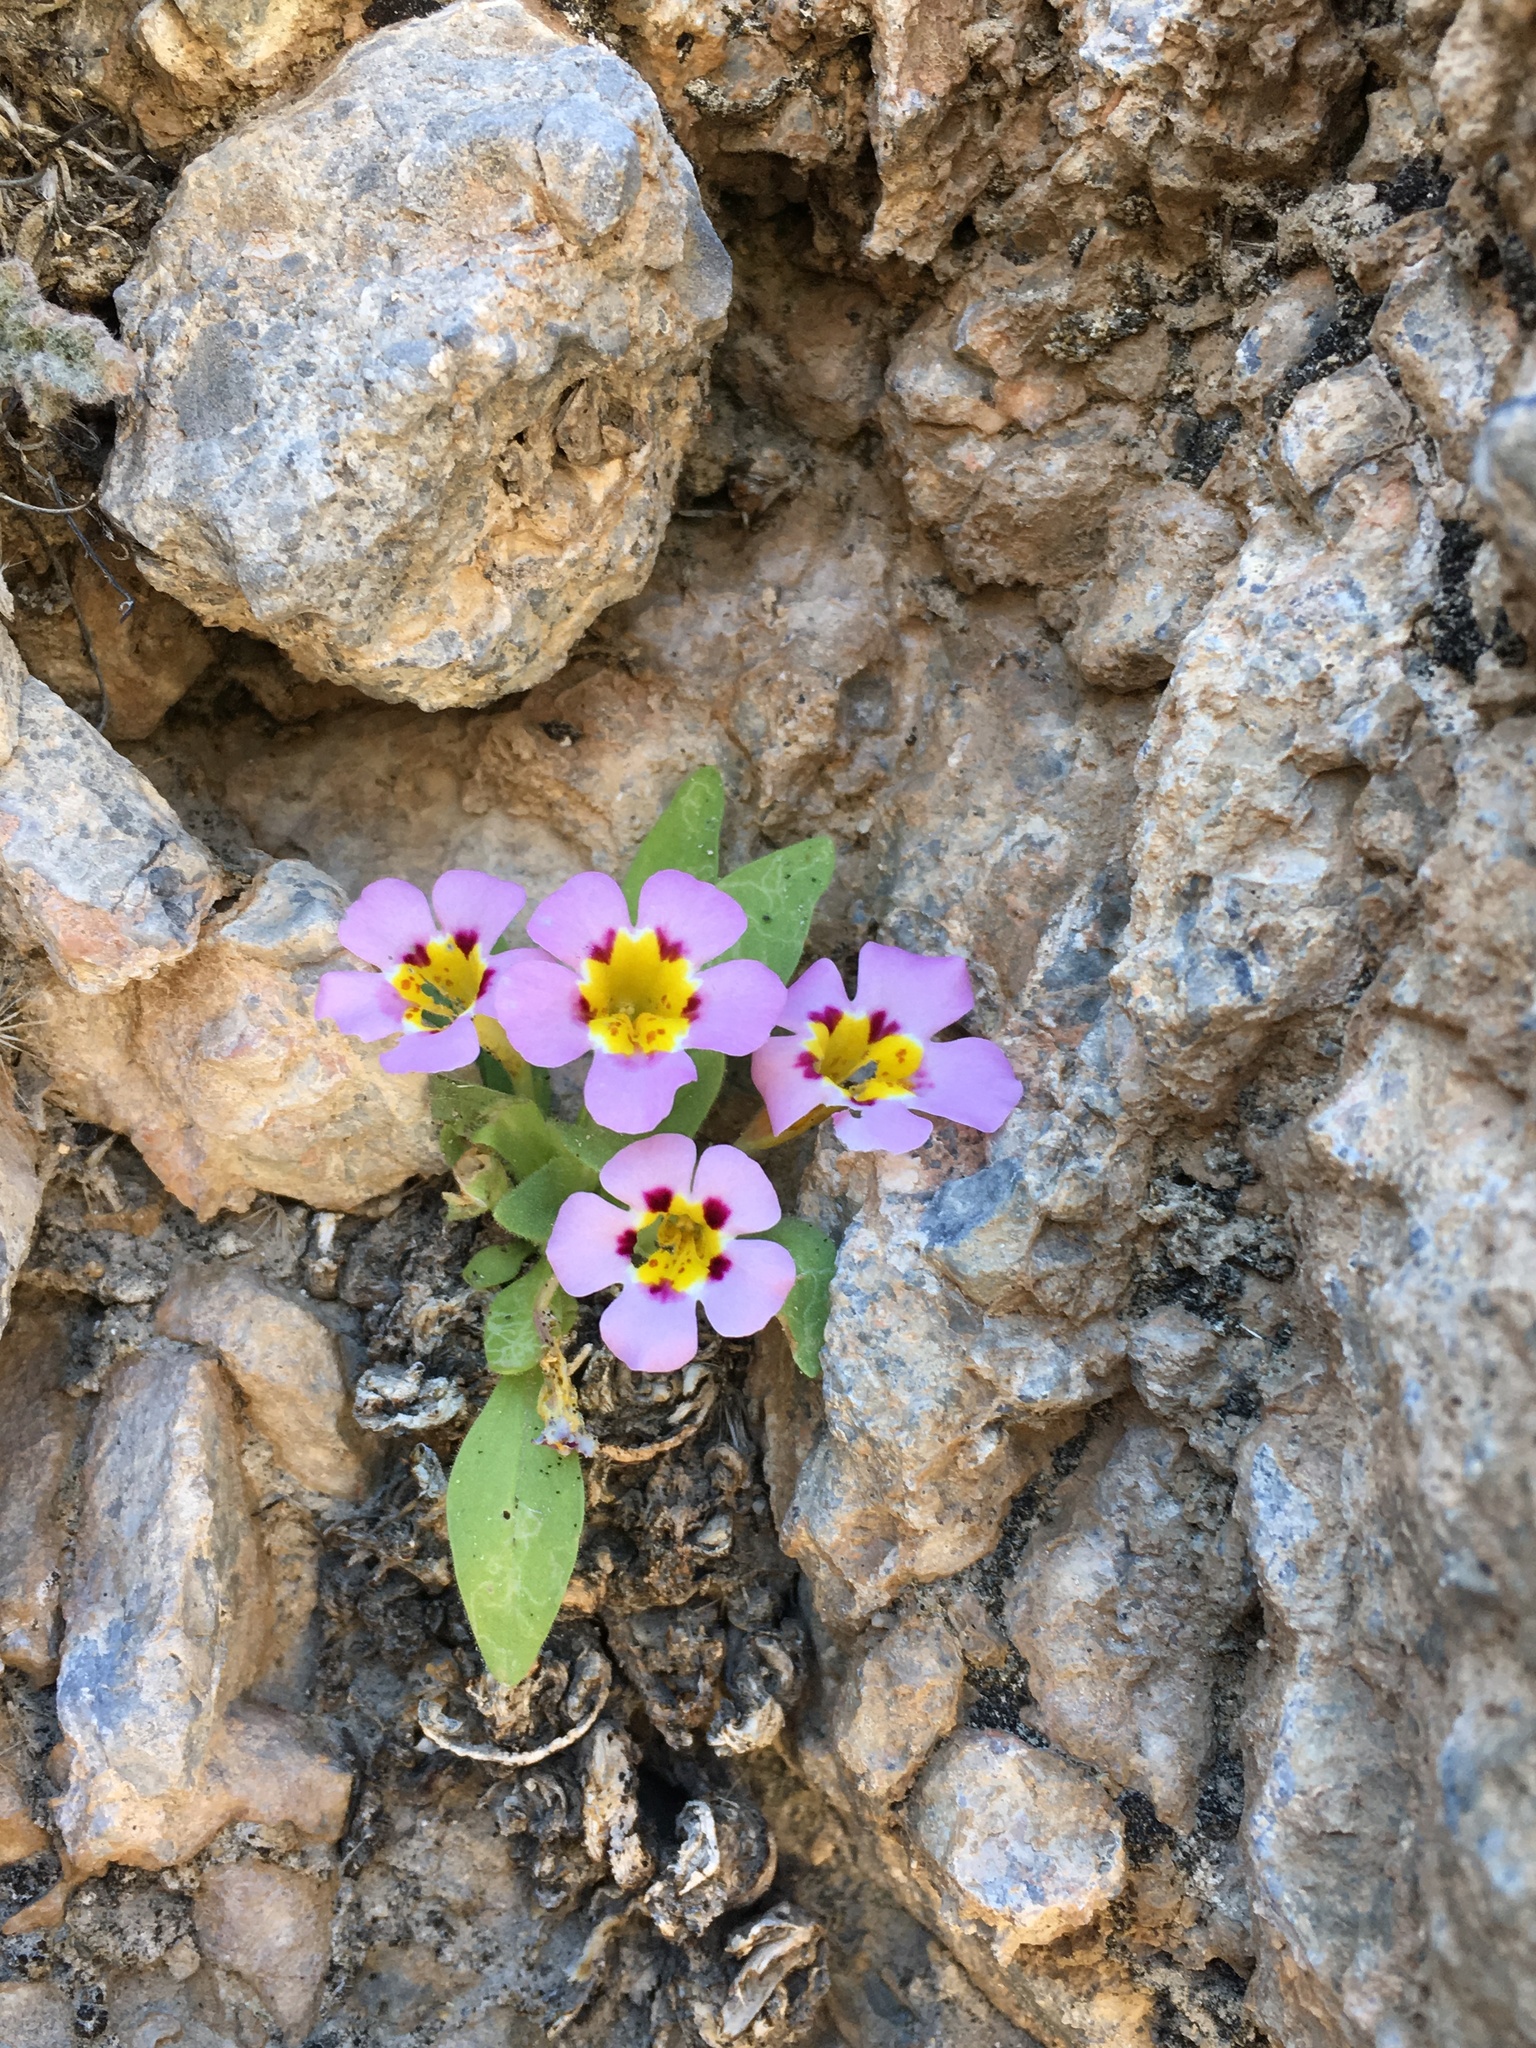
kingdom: Plantae
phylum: Tracheophyta
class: Magnoliopsida
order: Lamiales
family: Phrymaceae
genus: Diplacus
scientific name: Diplacus rupicola
